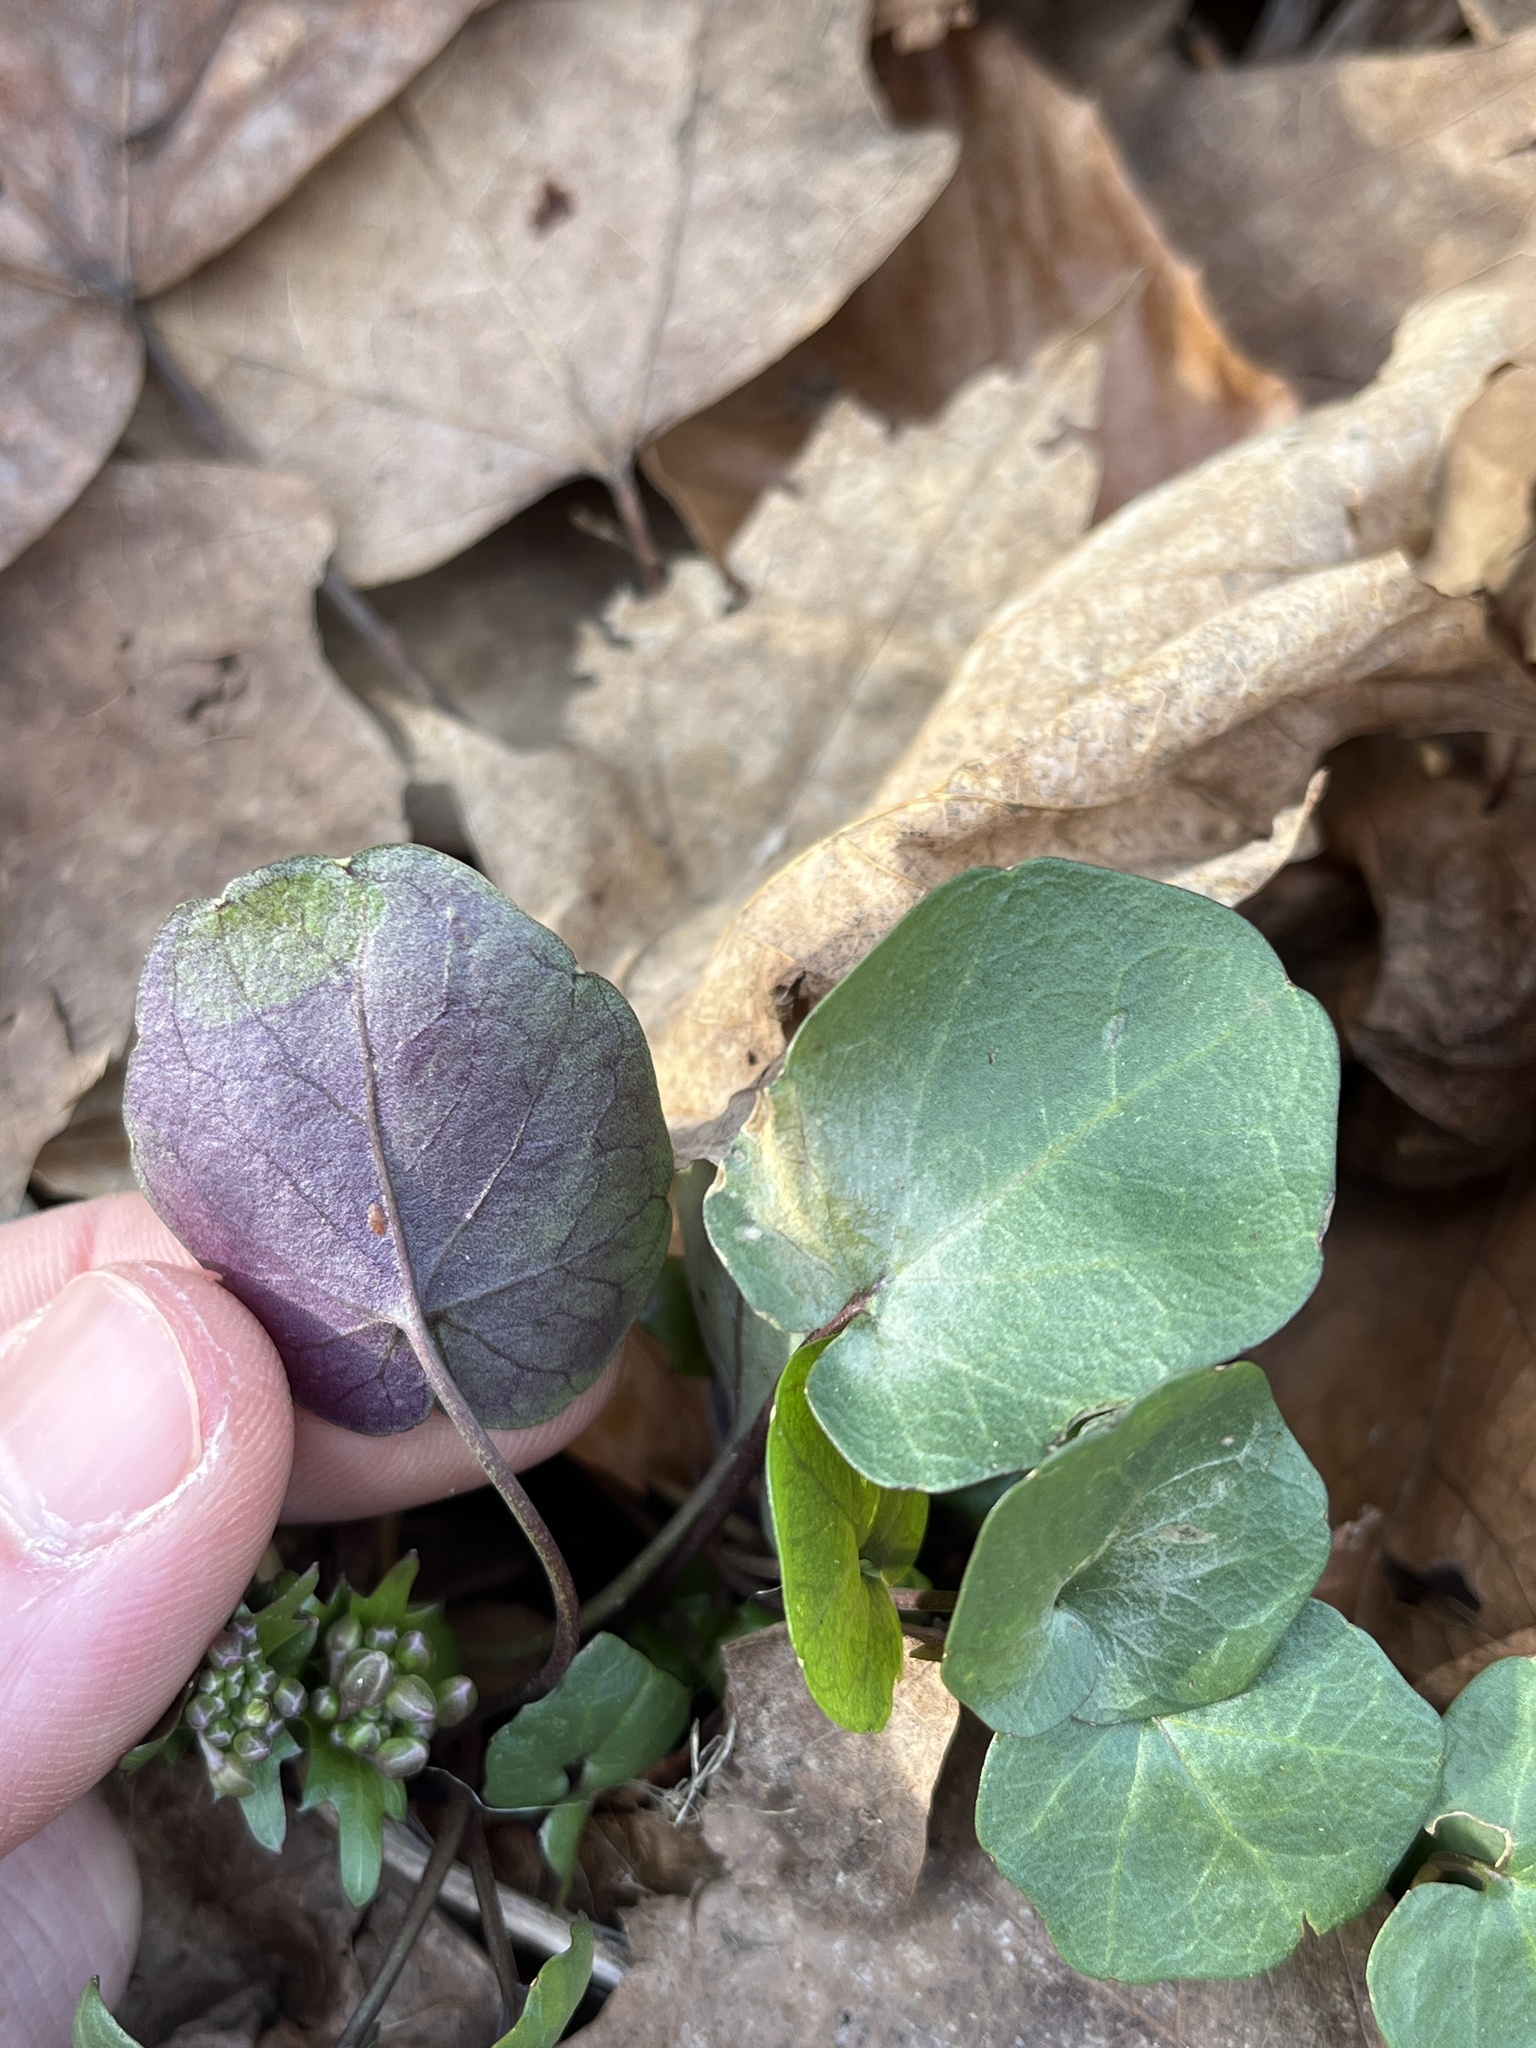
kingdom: Plantae
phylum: Tracheophyta
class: Magnoliopsida
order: Brassicales
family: Brassicaceae
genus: Cardamine
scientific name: Cardamine douglassii
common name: Purple cress
